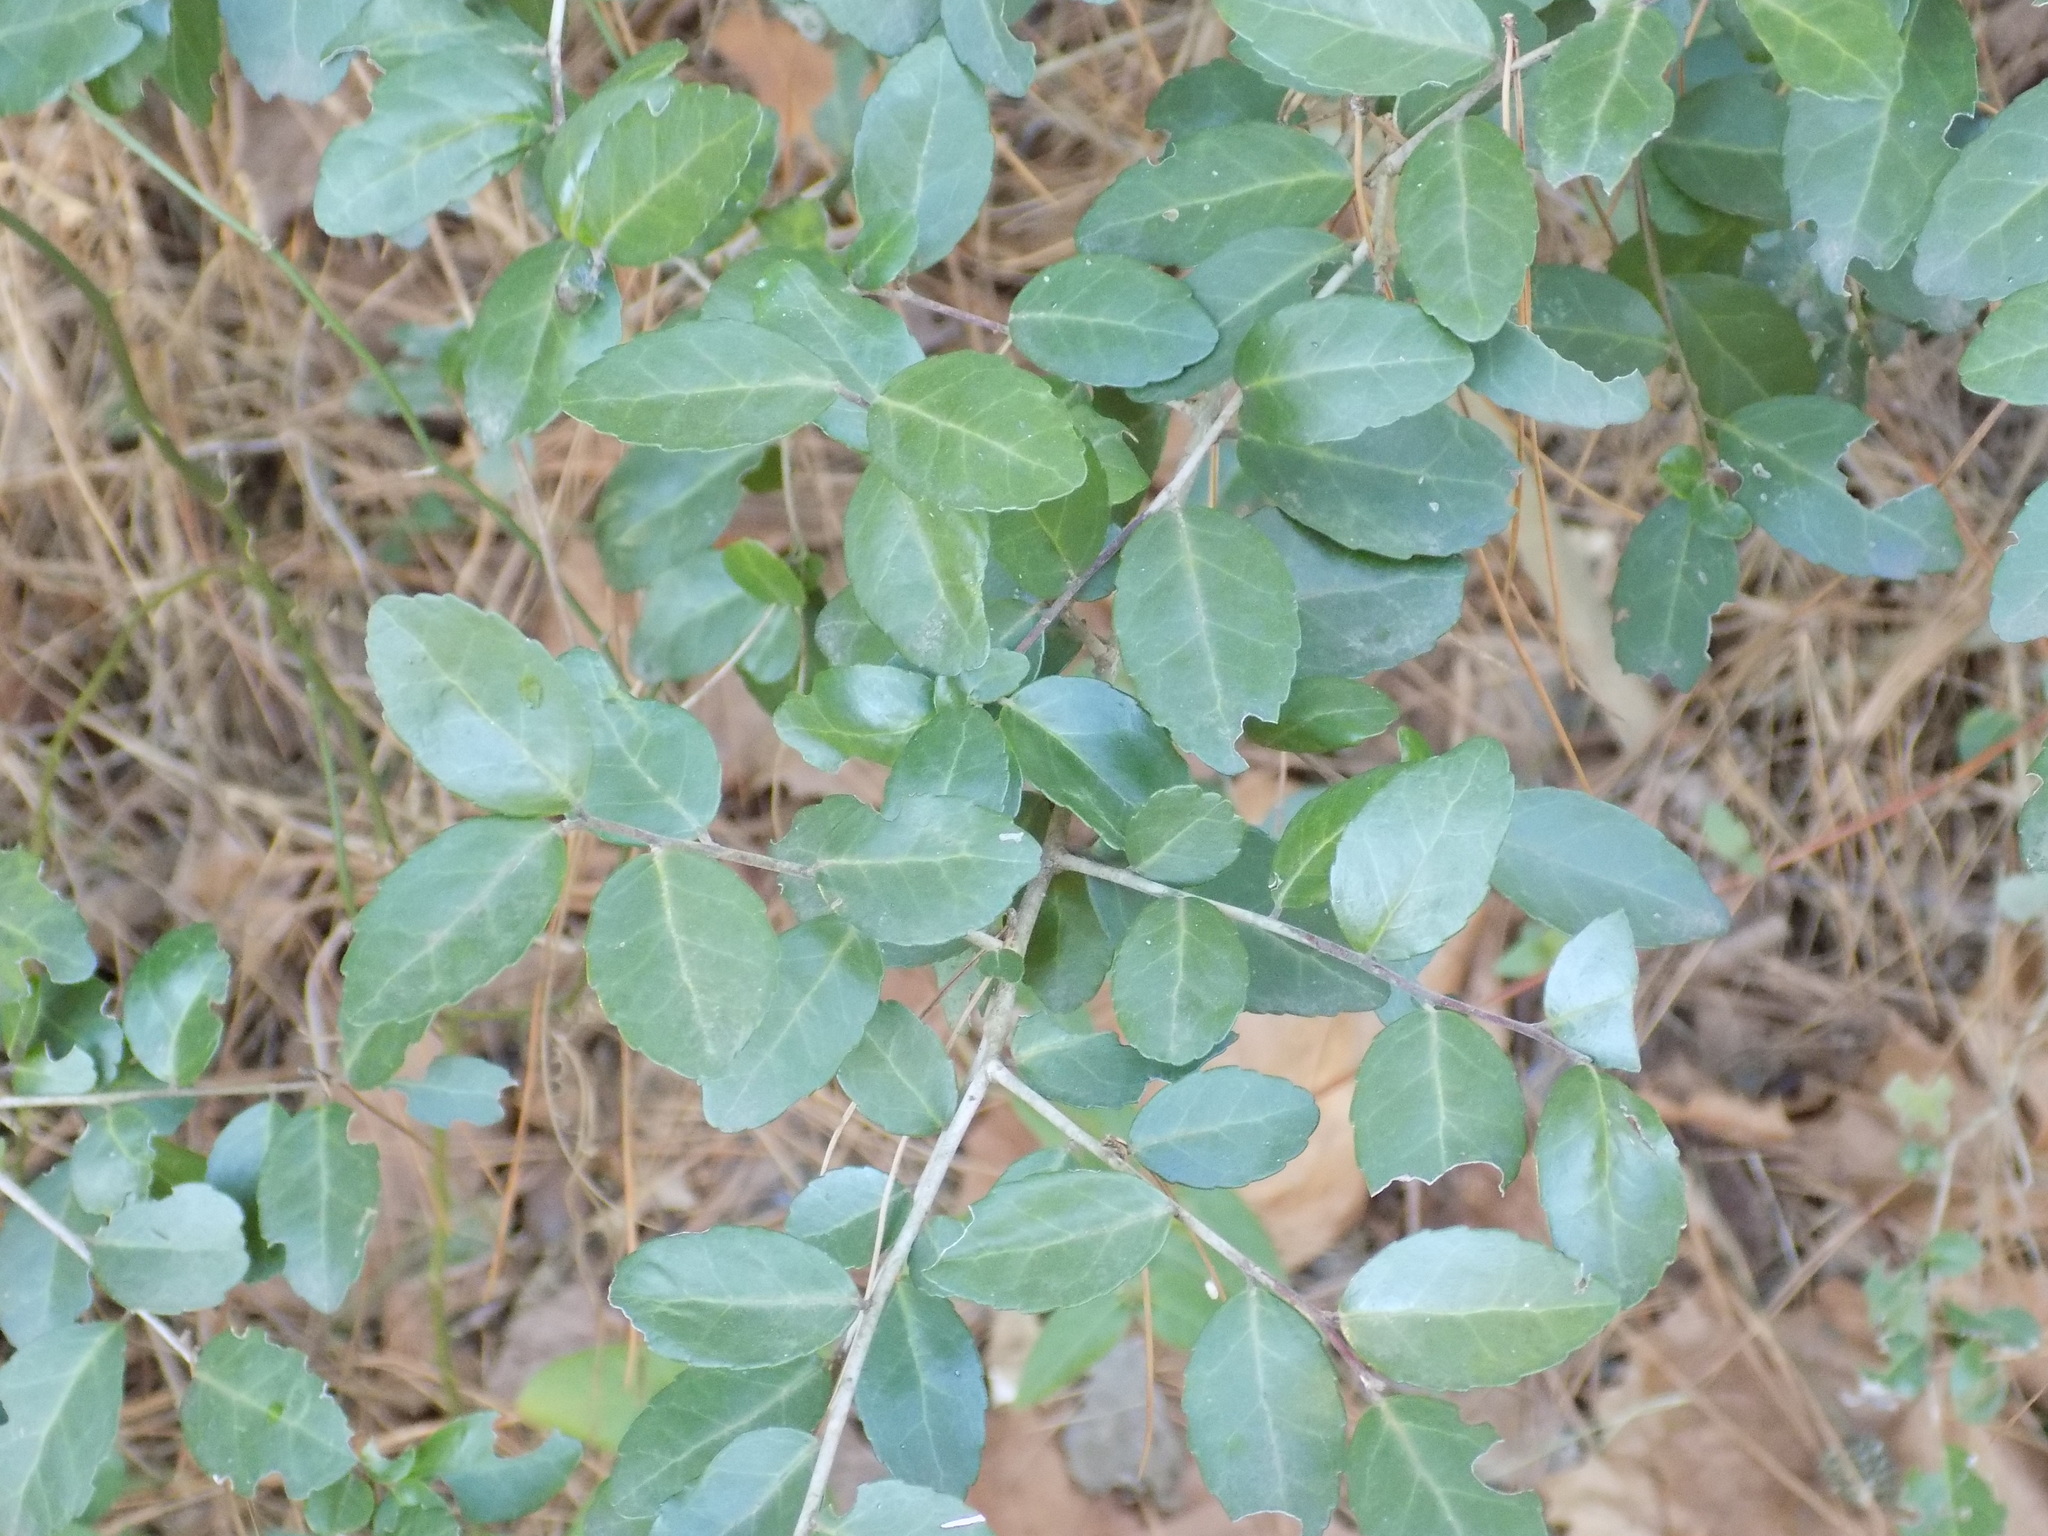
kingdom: Plantae
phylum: Tracheophyta
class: Magnoliopsida
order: Aquifoliales
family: Aquifoliaceae
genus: Ilex
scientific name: Ilex vomitoria
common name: Yaupon holly
